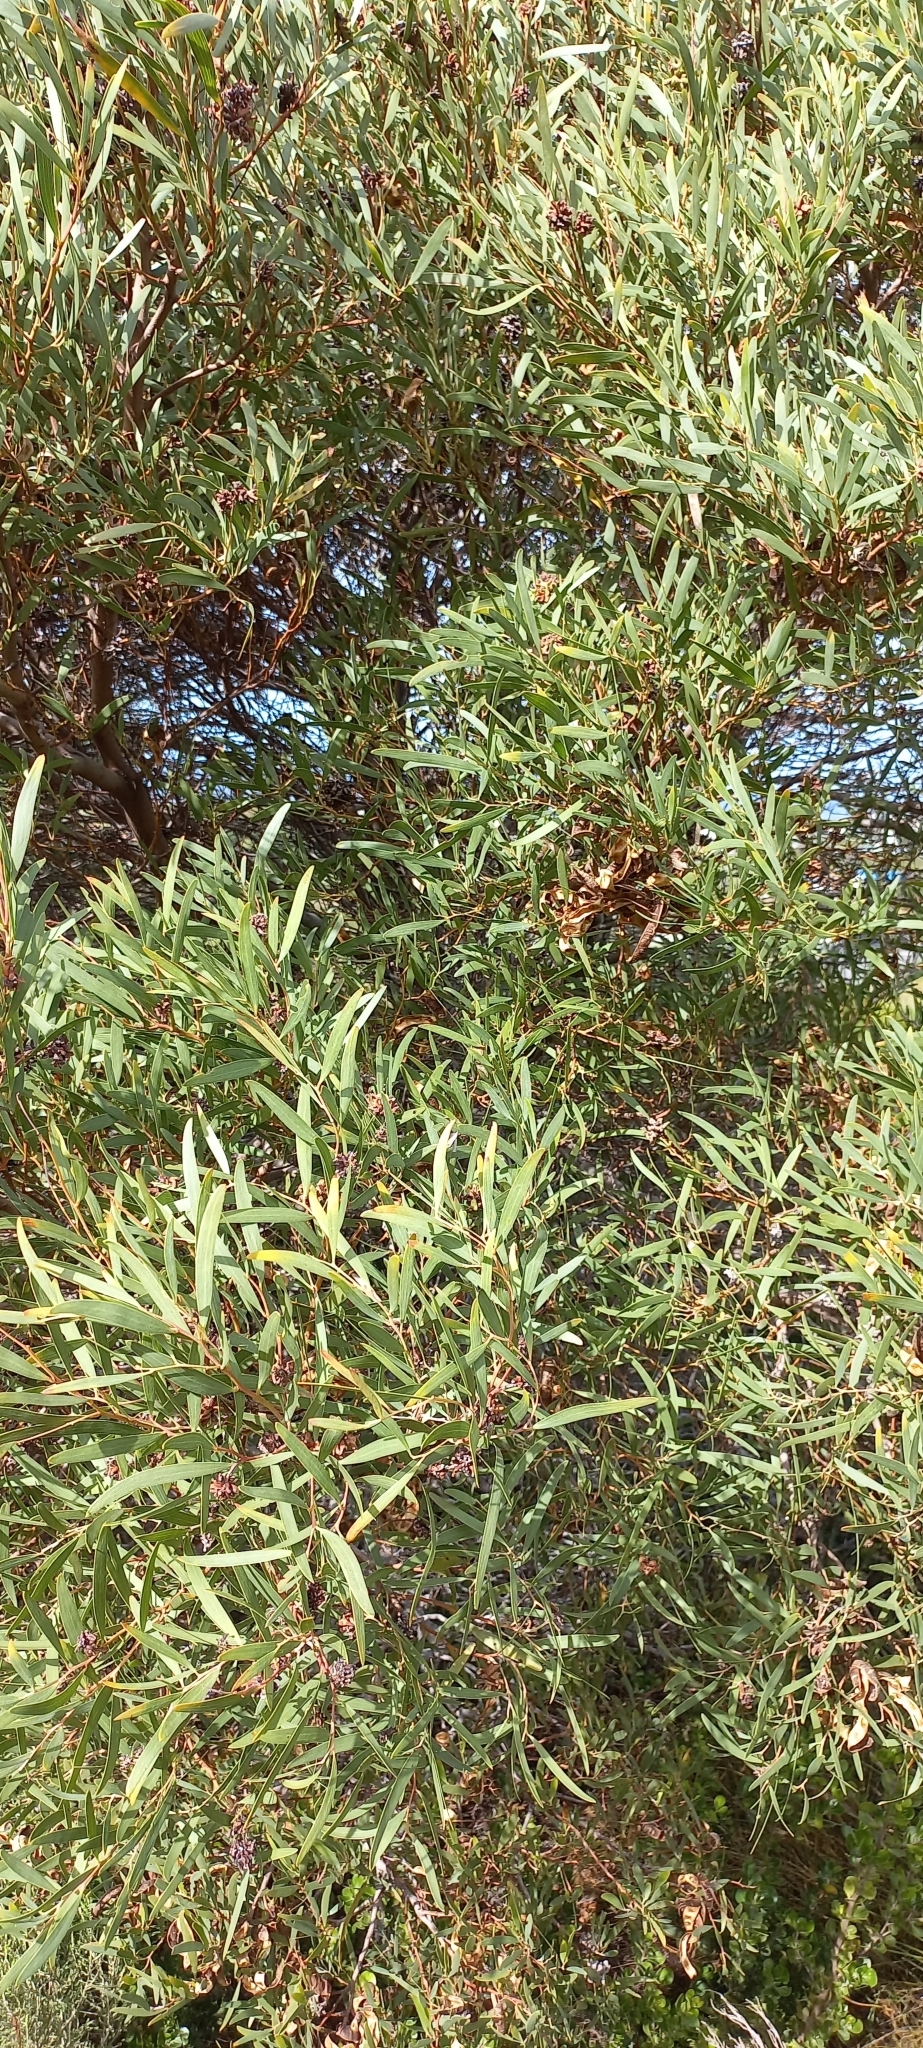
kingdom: Plantae
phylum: Tracheophyta
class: Magnoliopsida
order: Fabales
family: Fabaceae
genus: Acacia
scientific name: Acacia cyclops
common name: Coastal wattle
